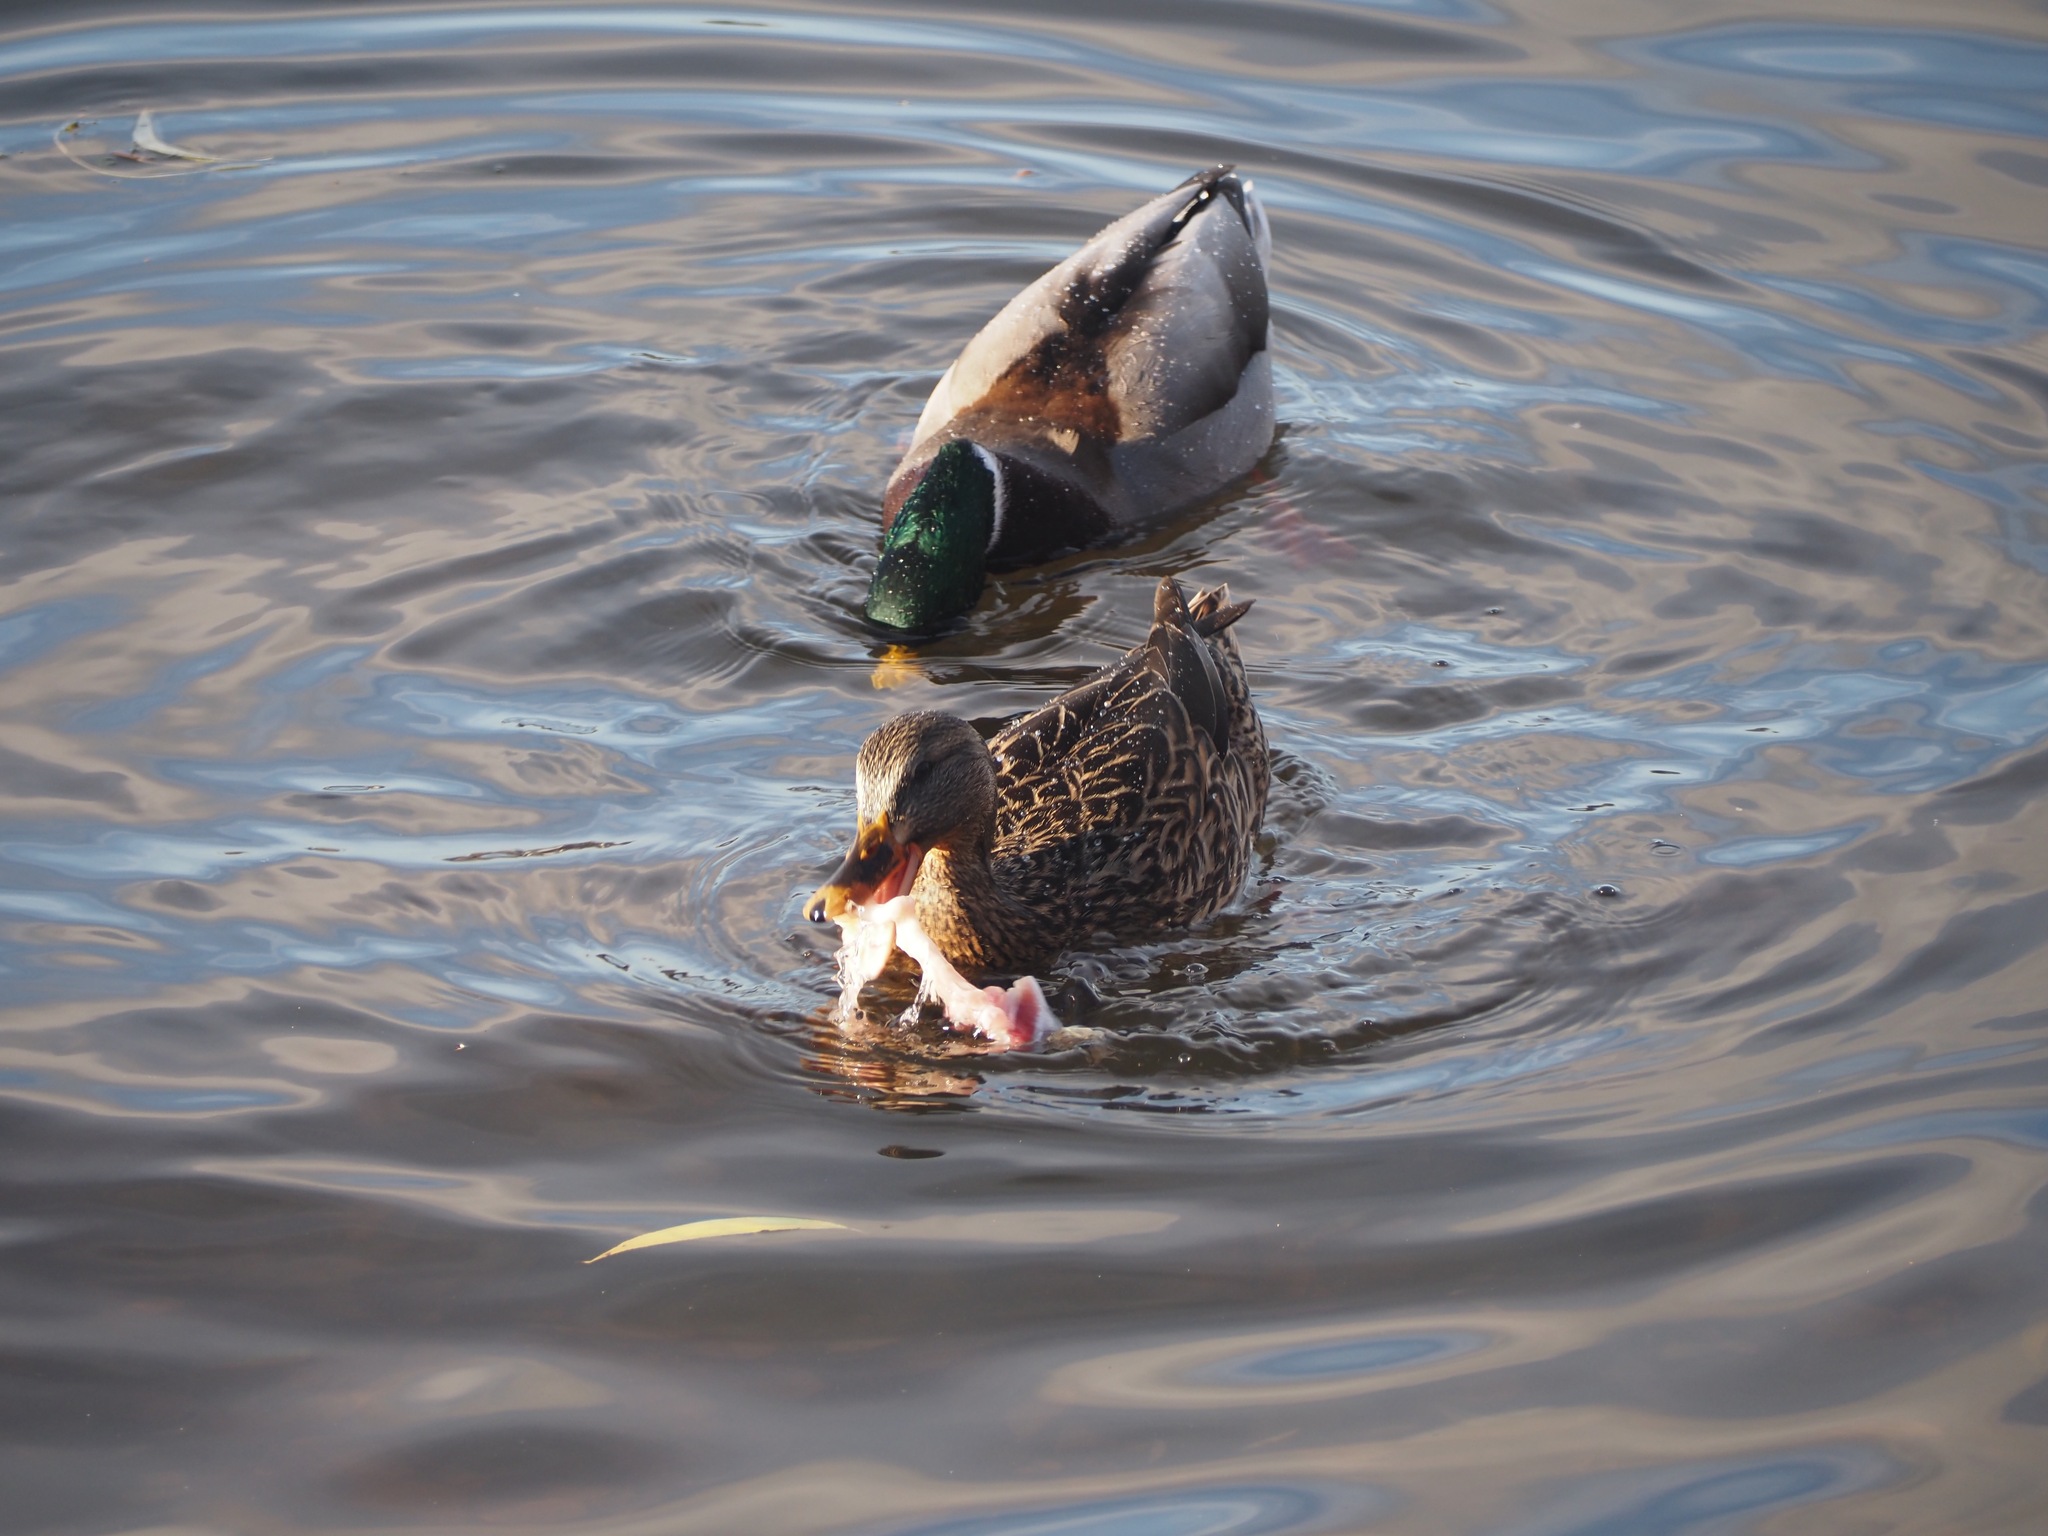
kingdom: Animalia
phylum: Chordata
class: Aves
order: Anseriformes
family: Anatidae
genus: Anas
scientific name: Anas platyrhynchos
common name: Mallard
